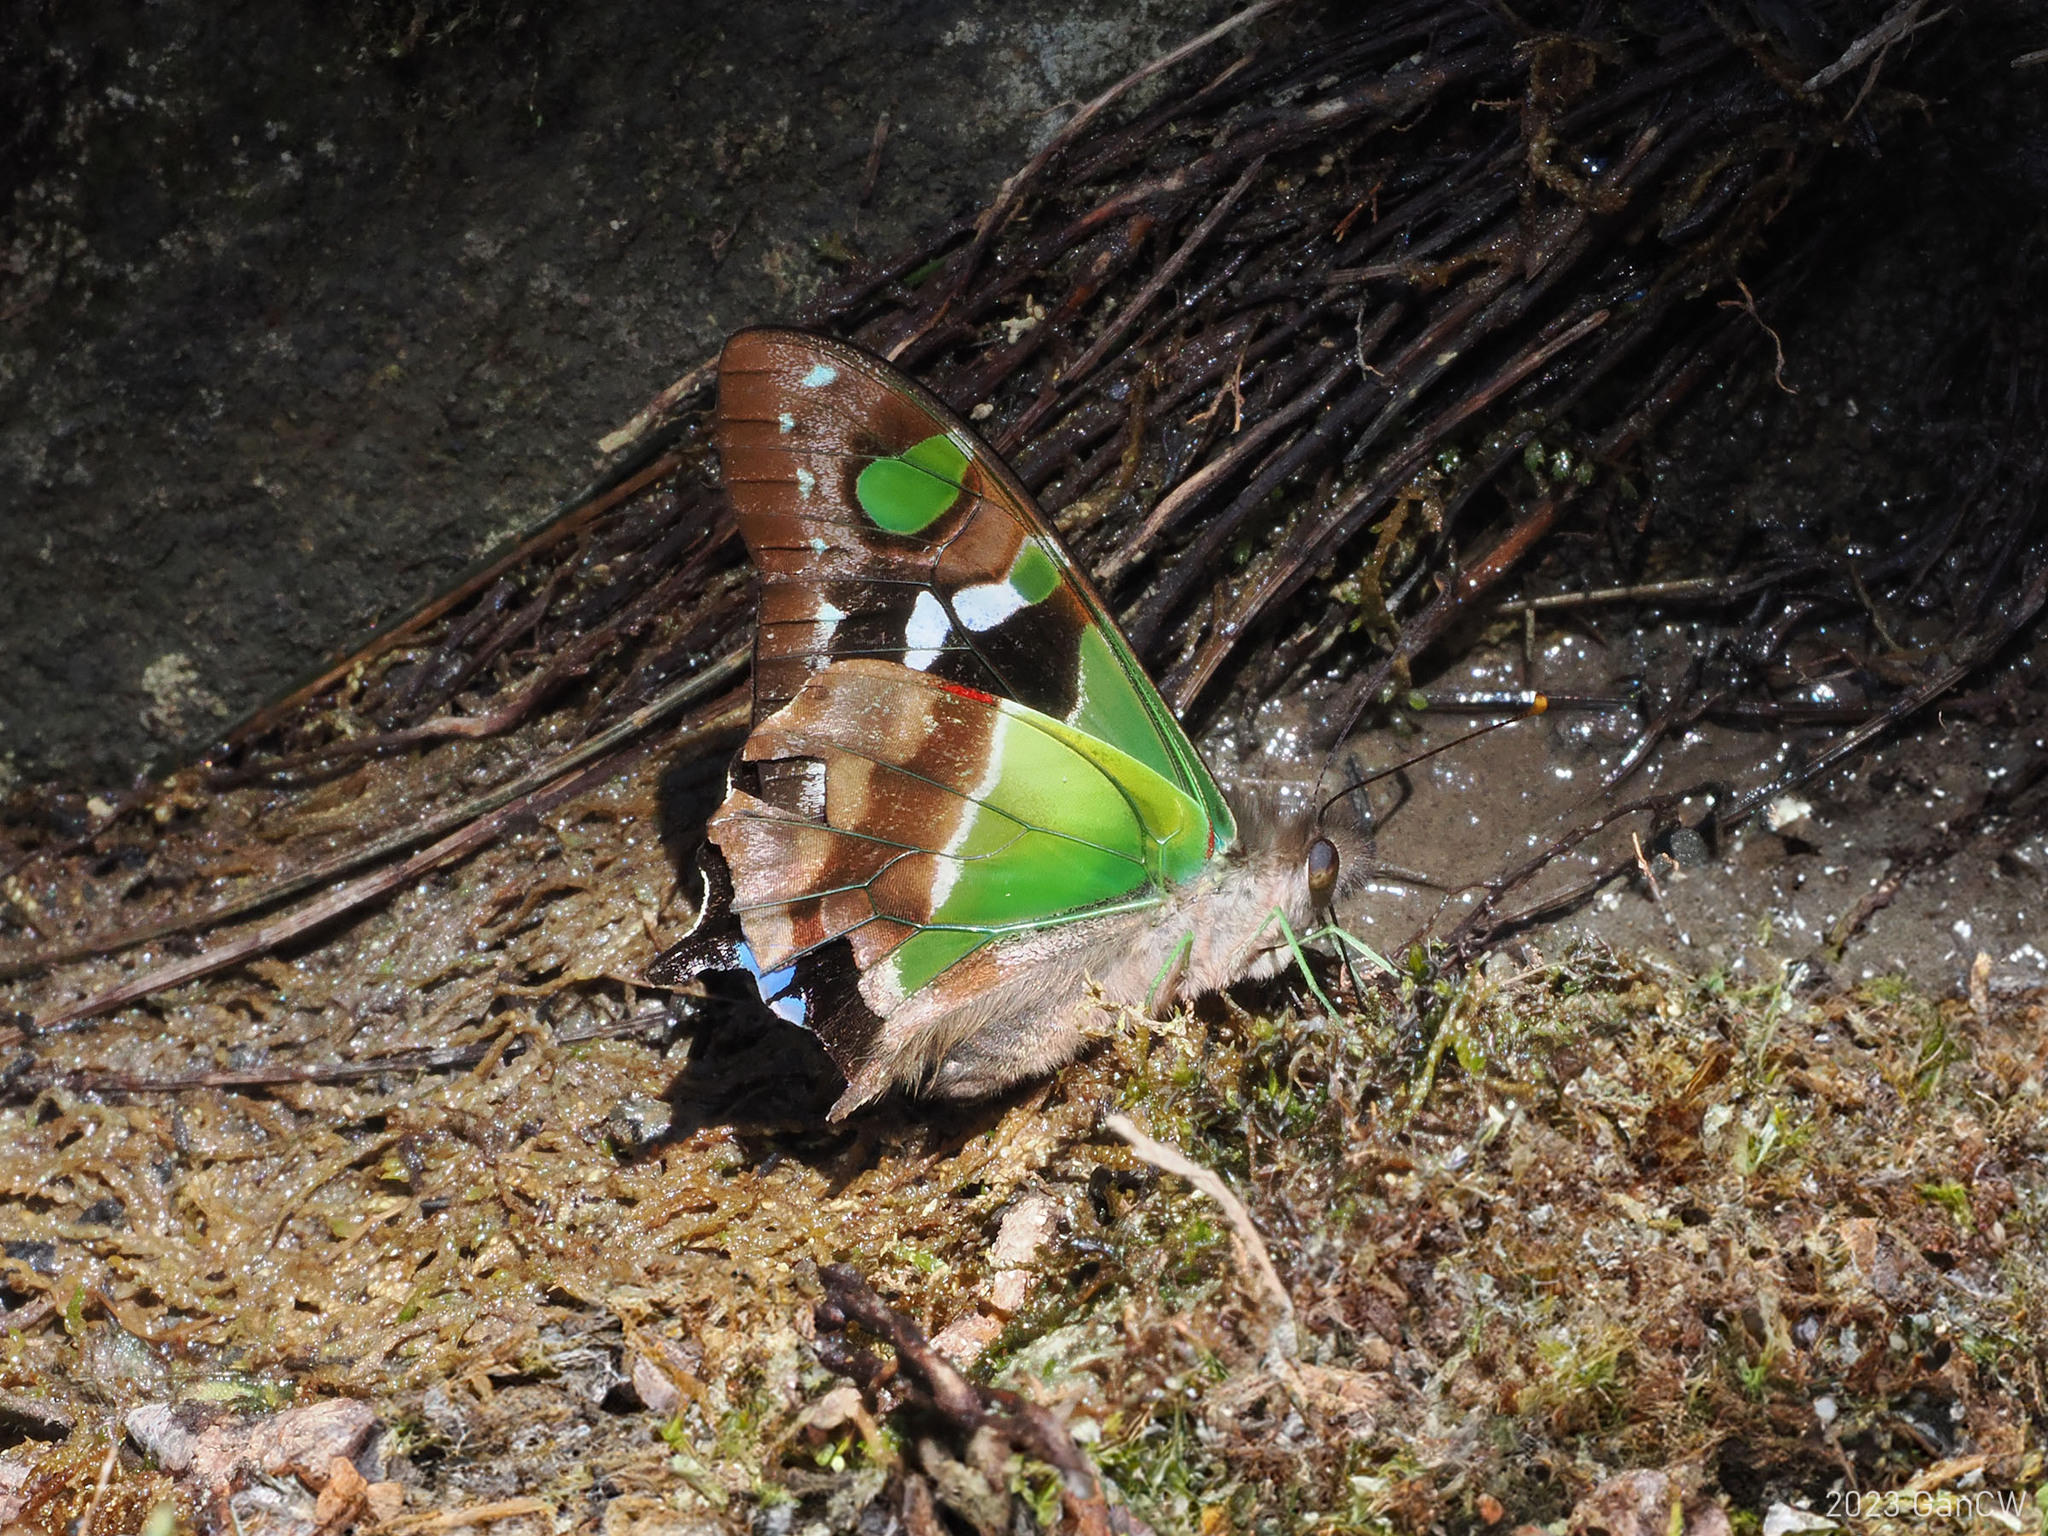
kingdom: Animalia
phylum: Arthropoda
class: Insecta
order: Lepidoptera
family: Papilionidae
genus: Graphium
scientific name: Graphium weiskei
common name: Purple spotted swallowtail
